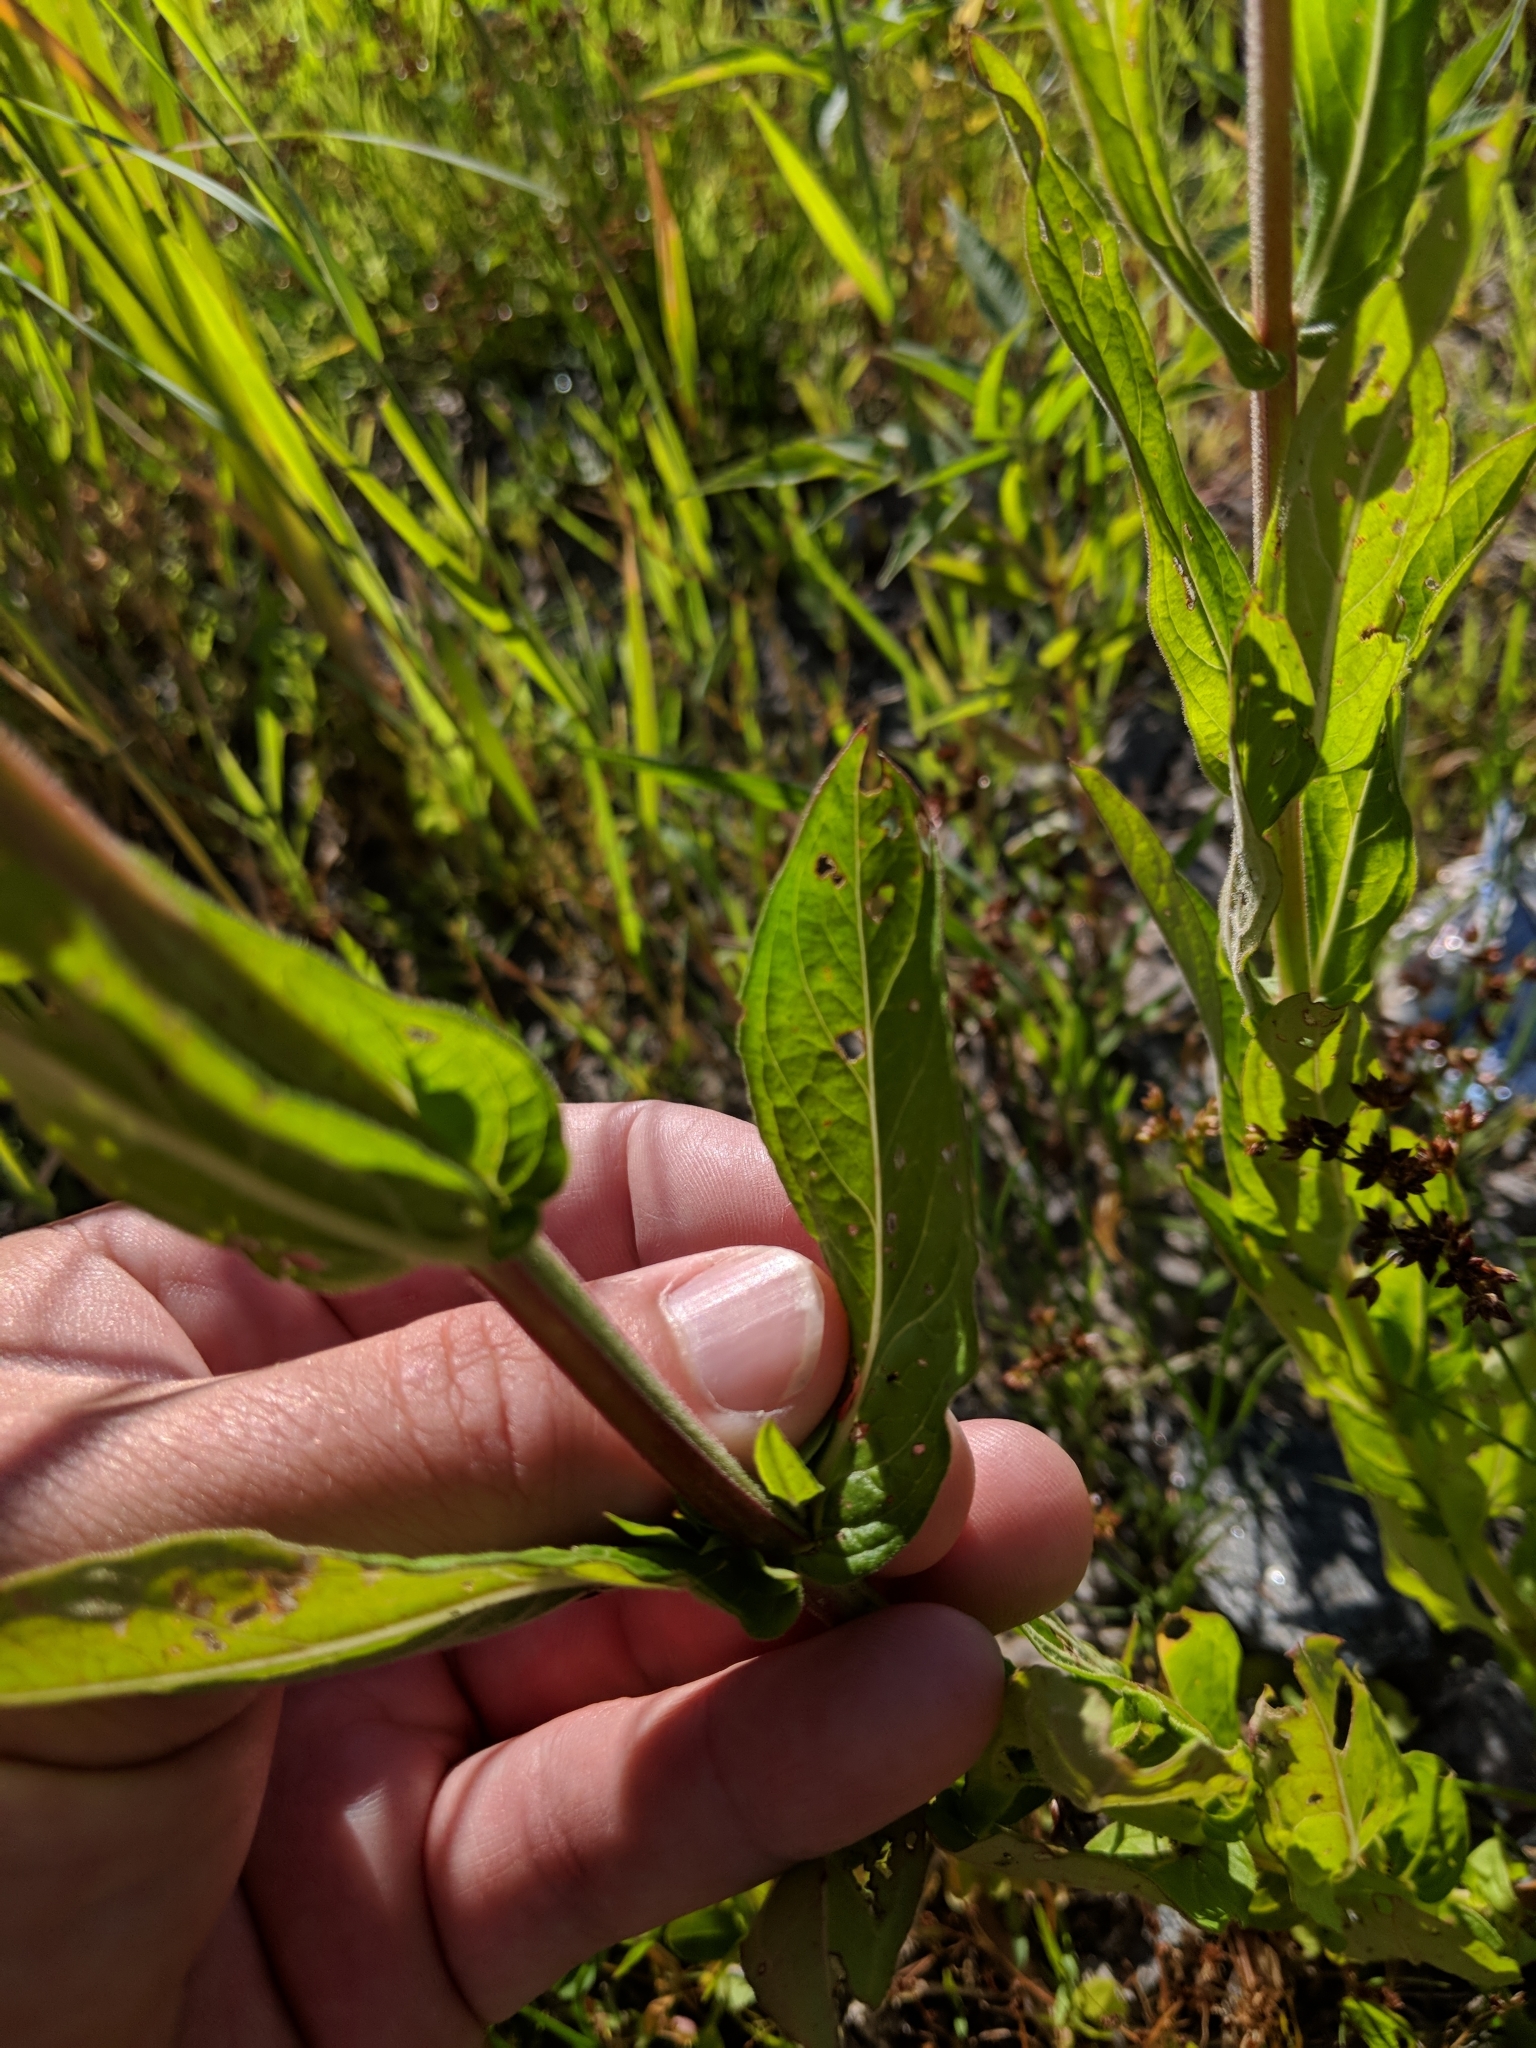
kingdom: Plantae
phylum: Tracheophyta
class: Magnoliopsida
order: Myrtales
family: Lythraceae
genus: Lythrum
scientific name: Lythrum salicaria
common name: Purple loosestrife
